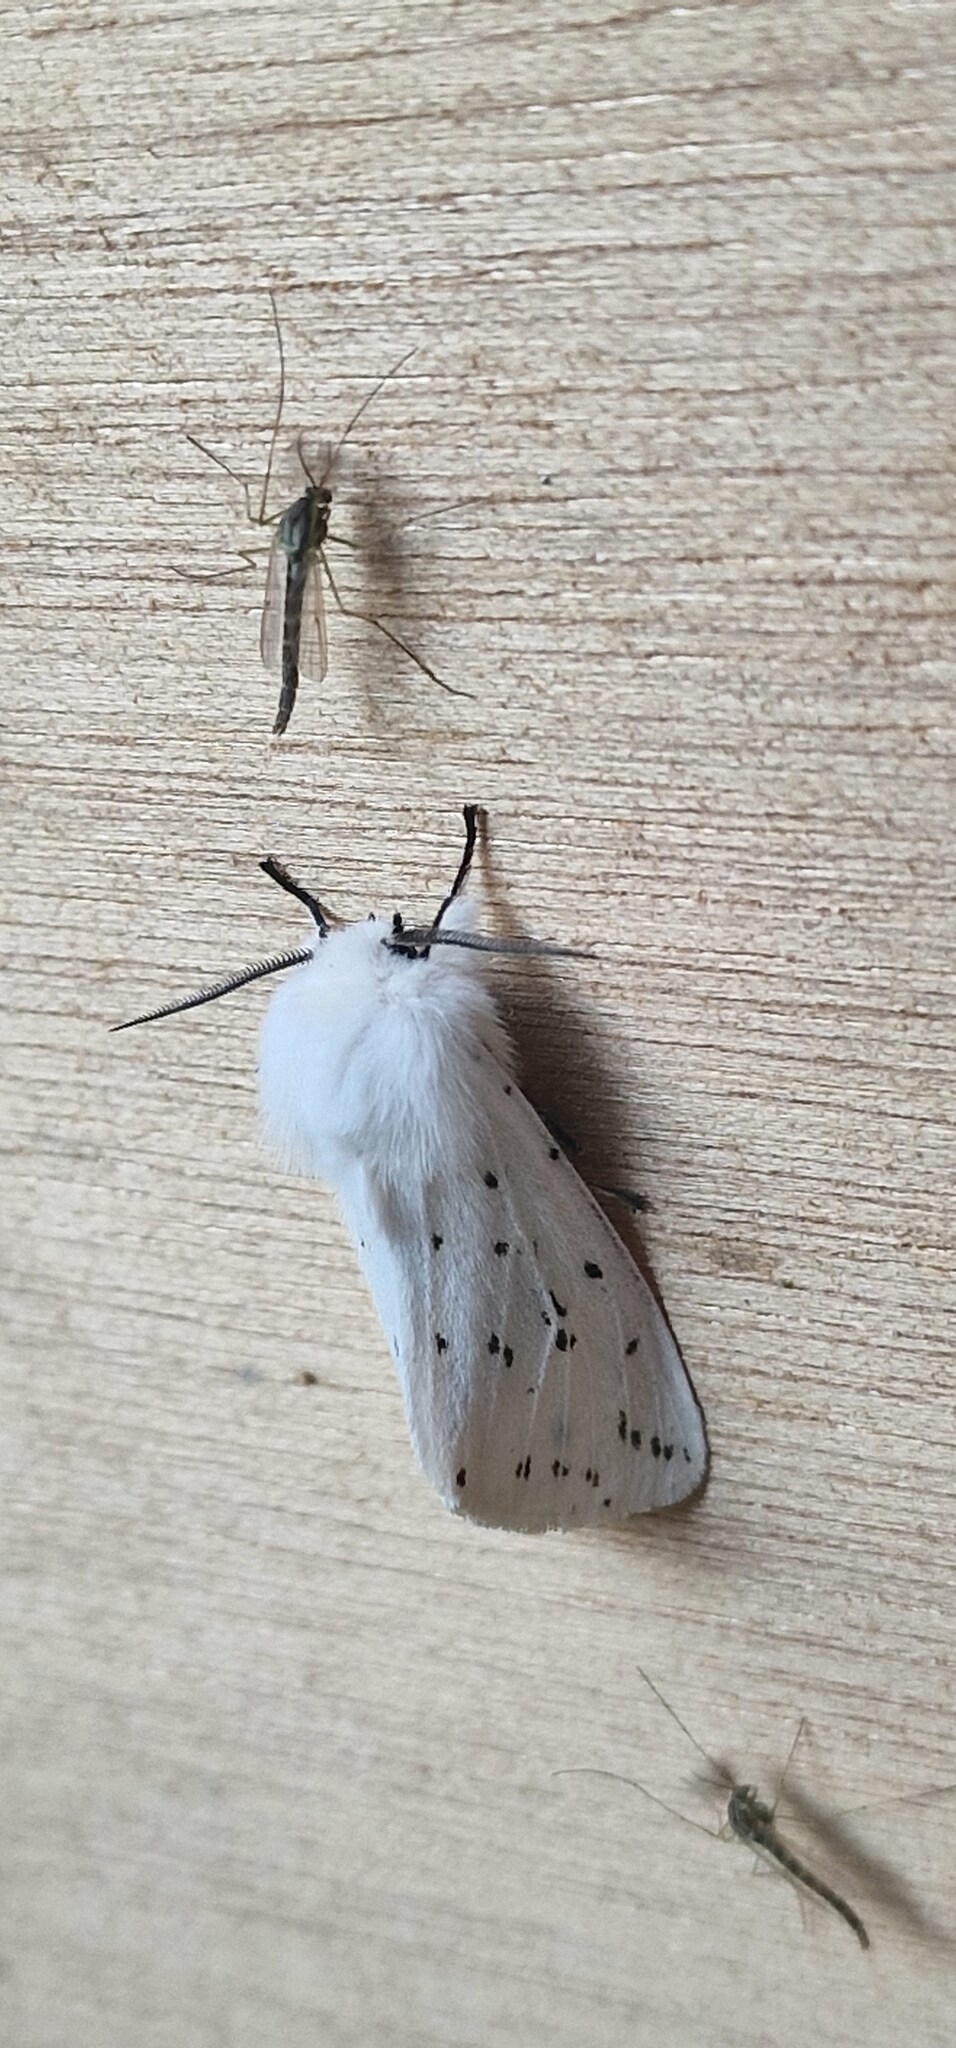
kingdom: Animalia
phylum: Arthropoda
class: Insecta
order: Lepidoptera
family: Erebidae
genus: Spilosoma
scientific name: Spilosoma lubricipeda
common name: White ermine
